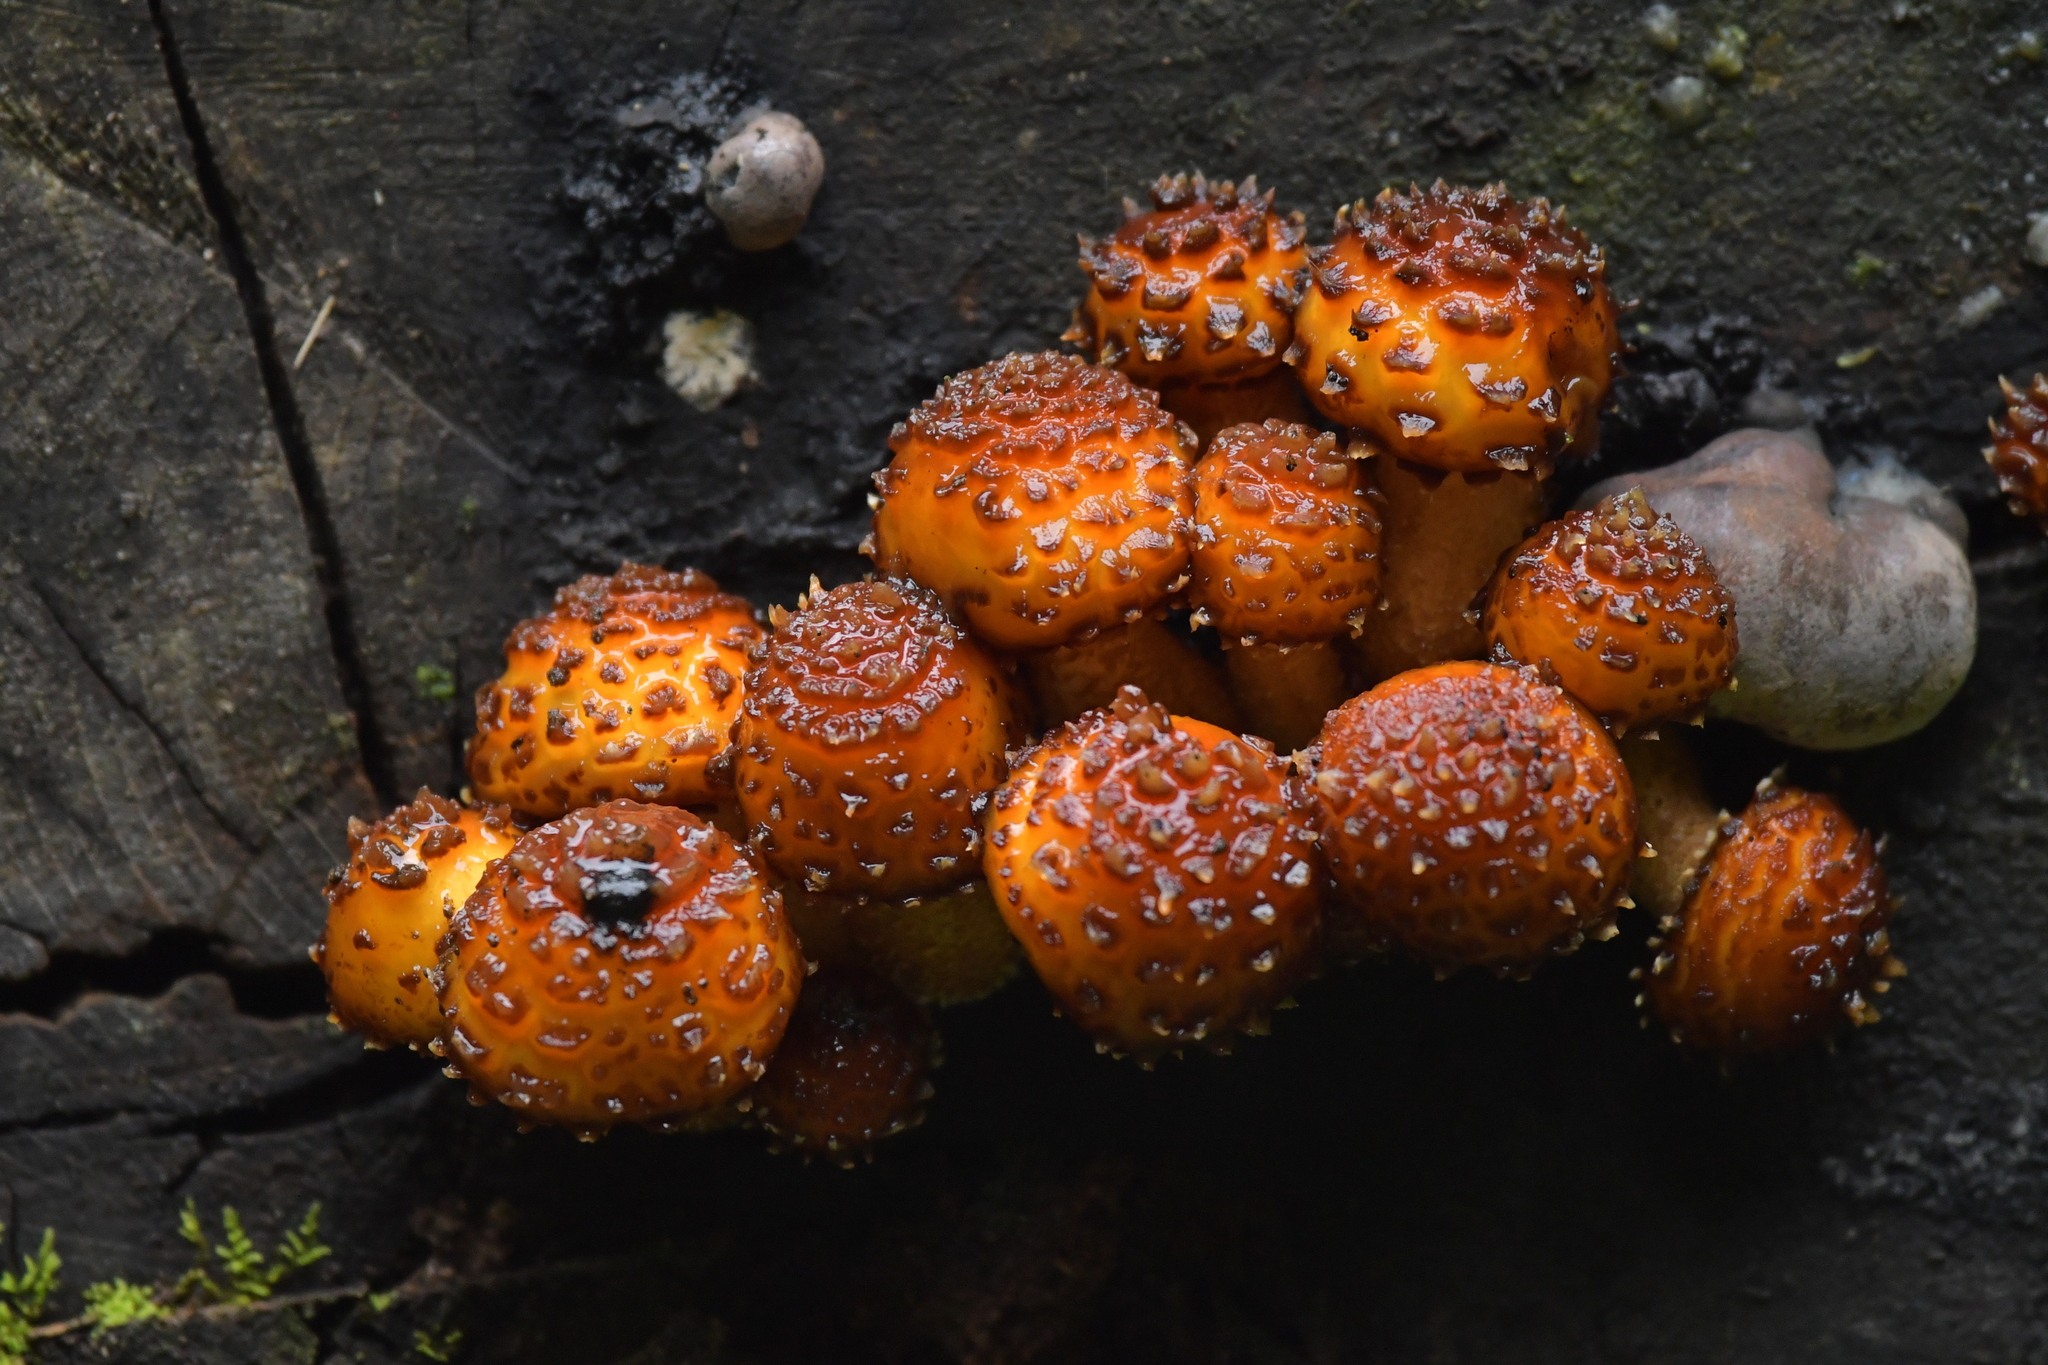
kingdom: Fungi
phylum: Basidiomycota
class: Agaricomycetes
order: Agaricales
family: Strophariaceae
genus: Pholiota
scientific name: Pholiota glutinosa
